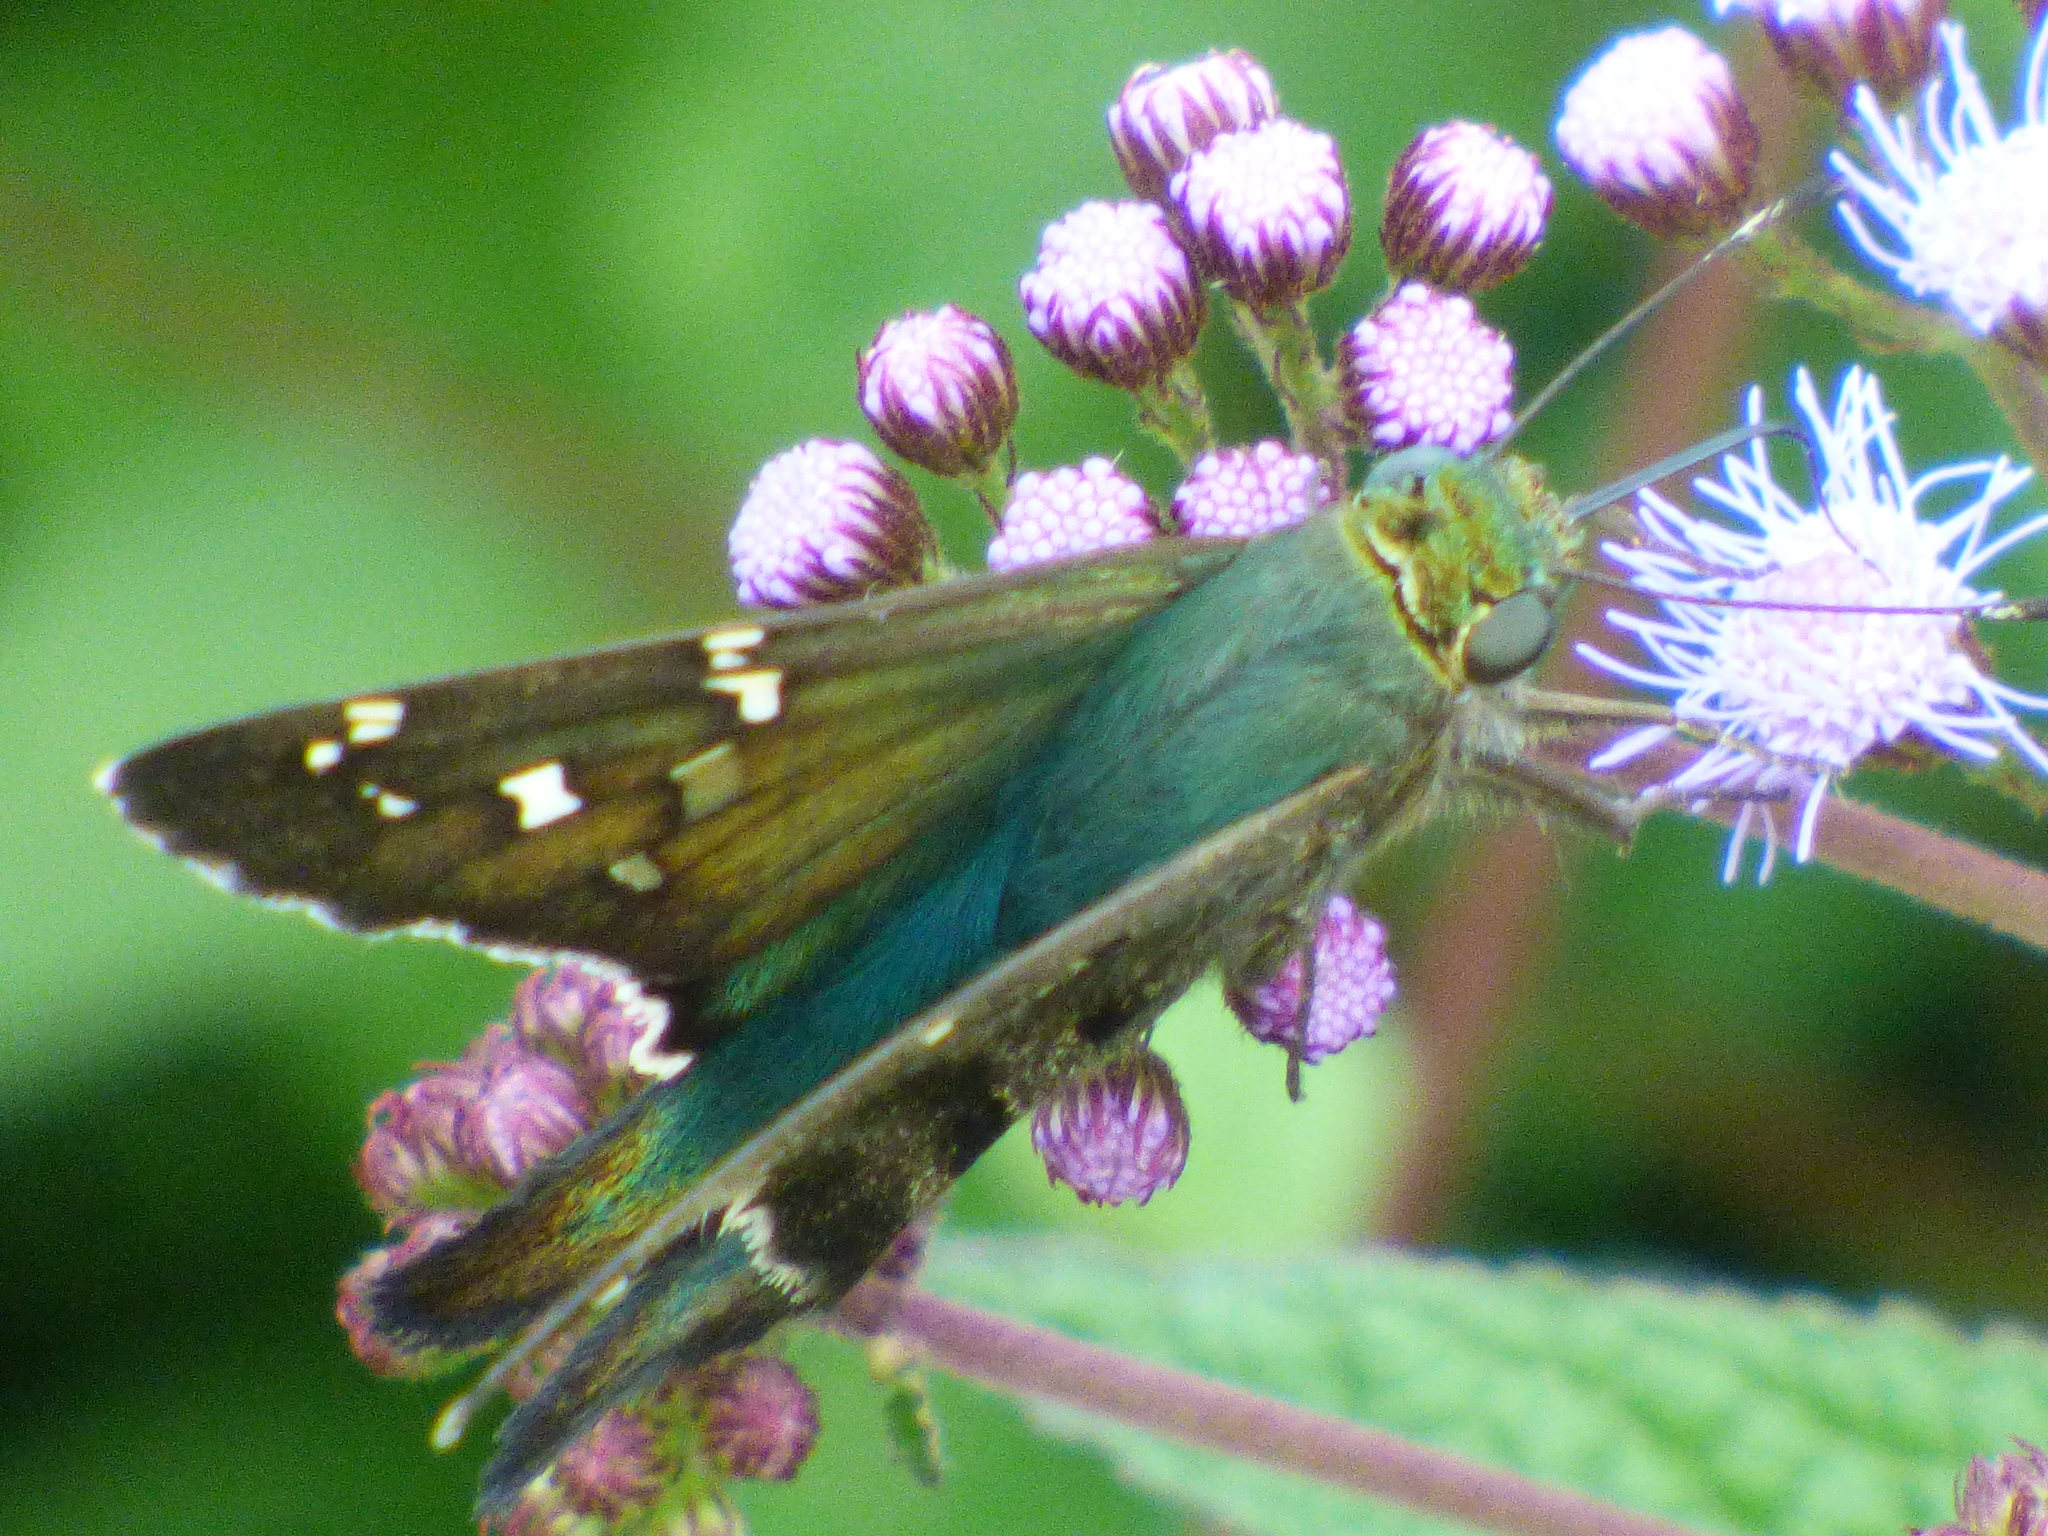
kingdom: Animalia
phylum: Arthropoda
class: Insecta
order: Lepidoptera
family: Hesperiidae
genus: Urbanus
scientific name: Urbanus proteus
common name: Long-tailed skipper
